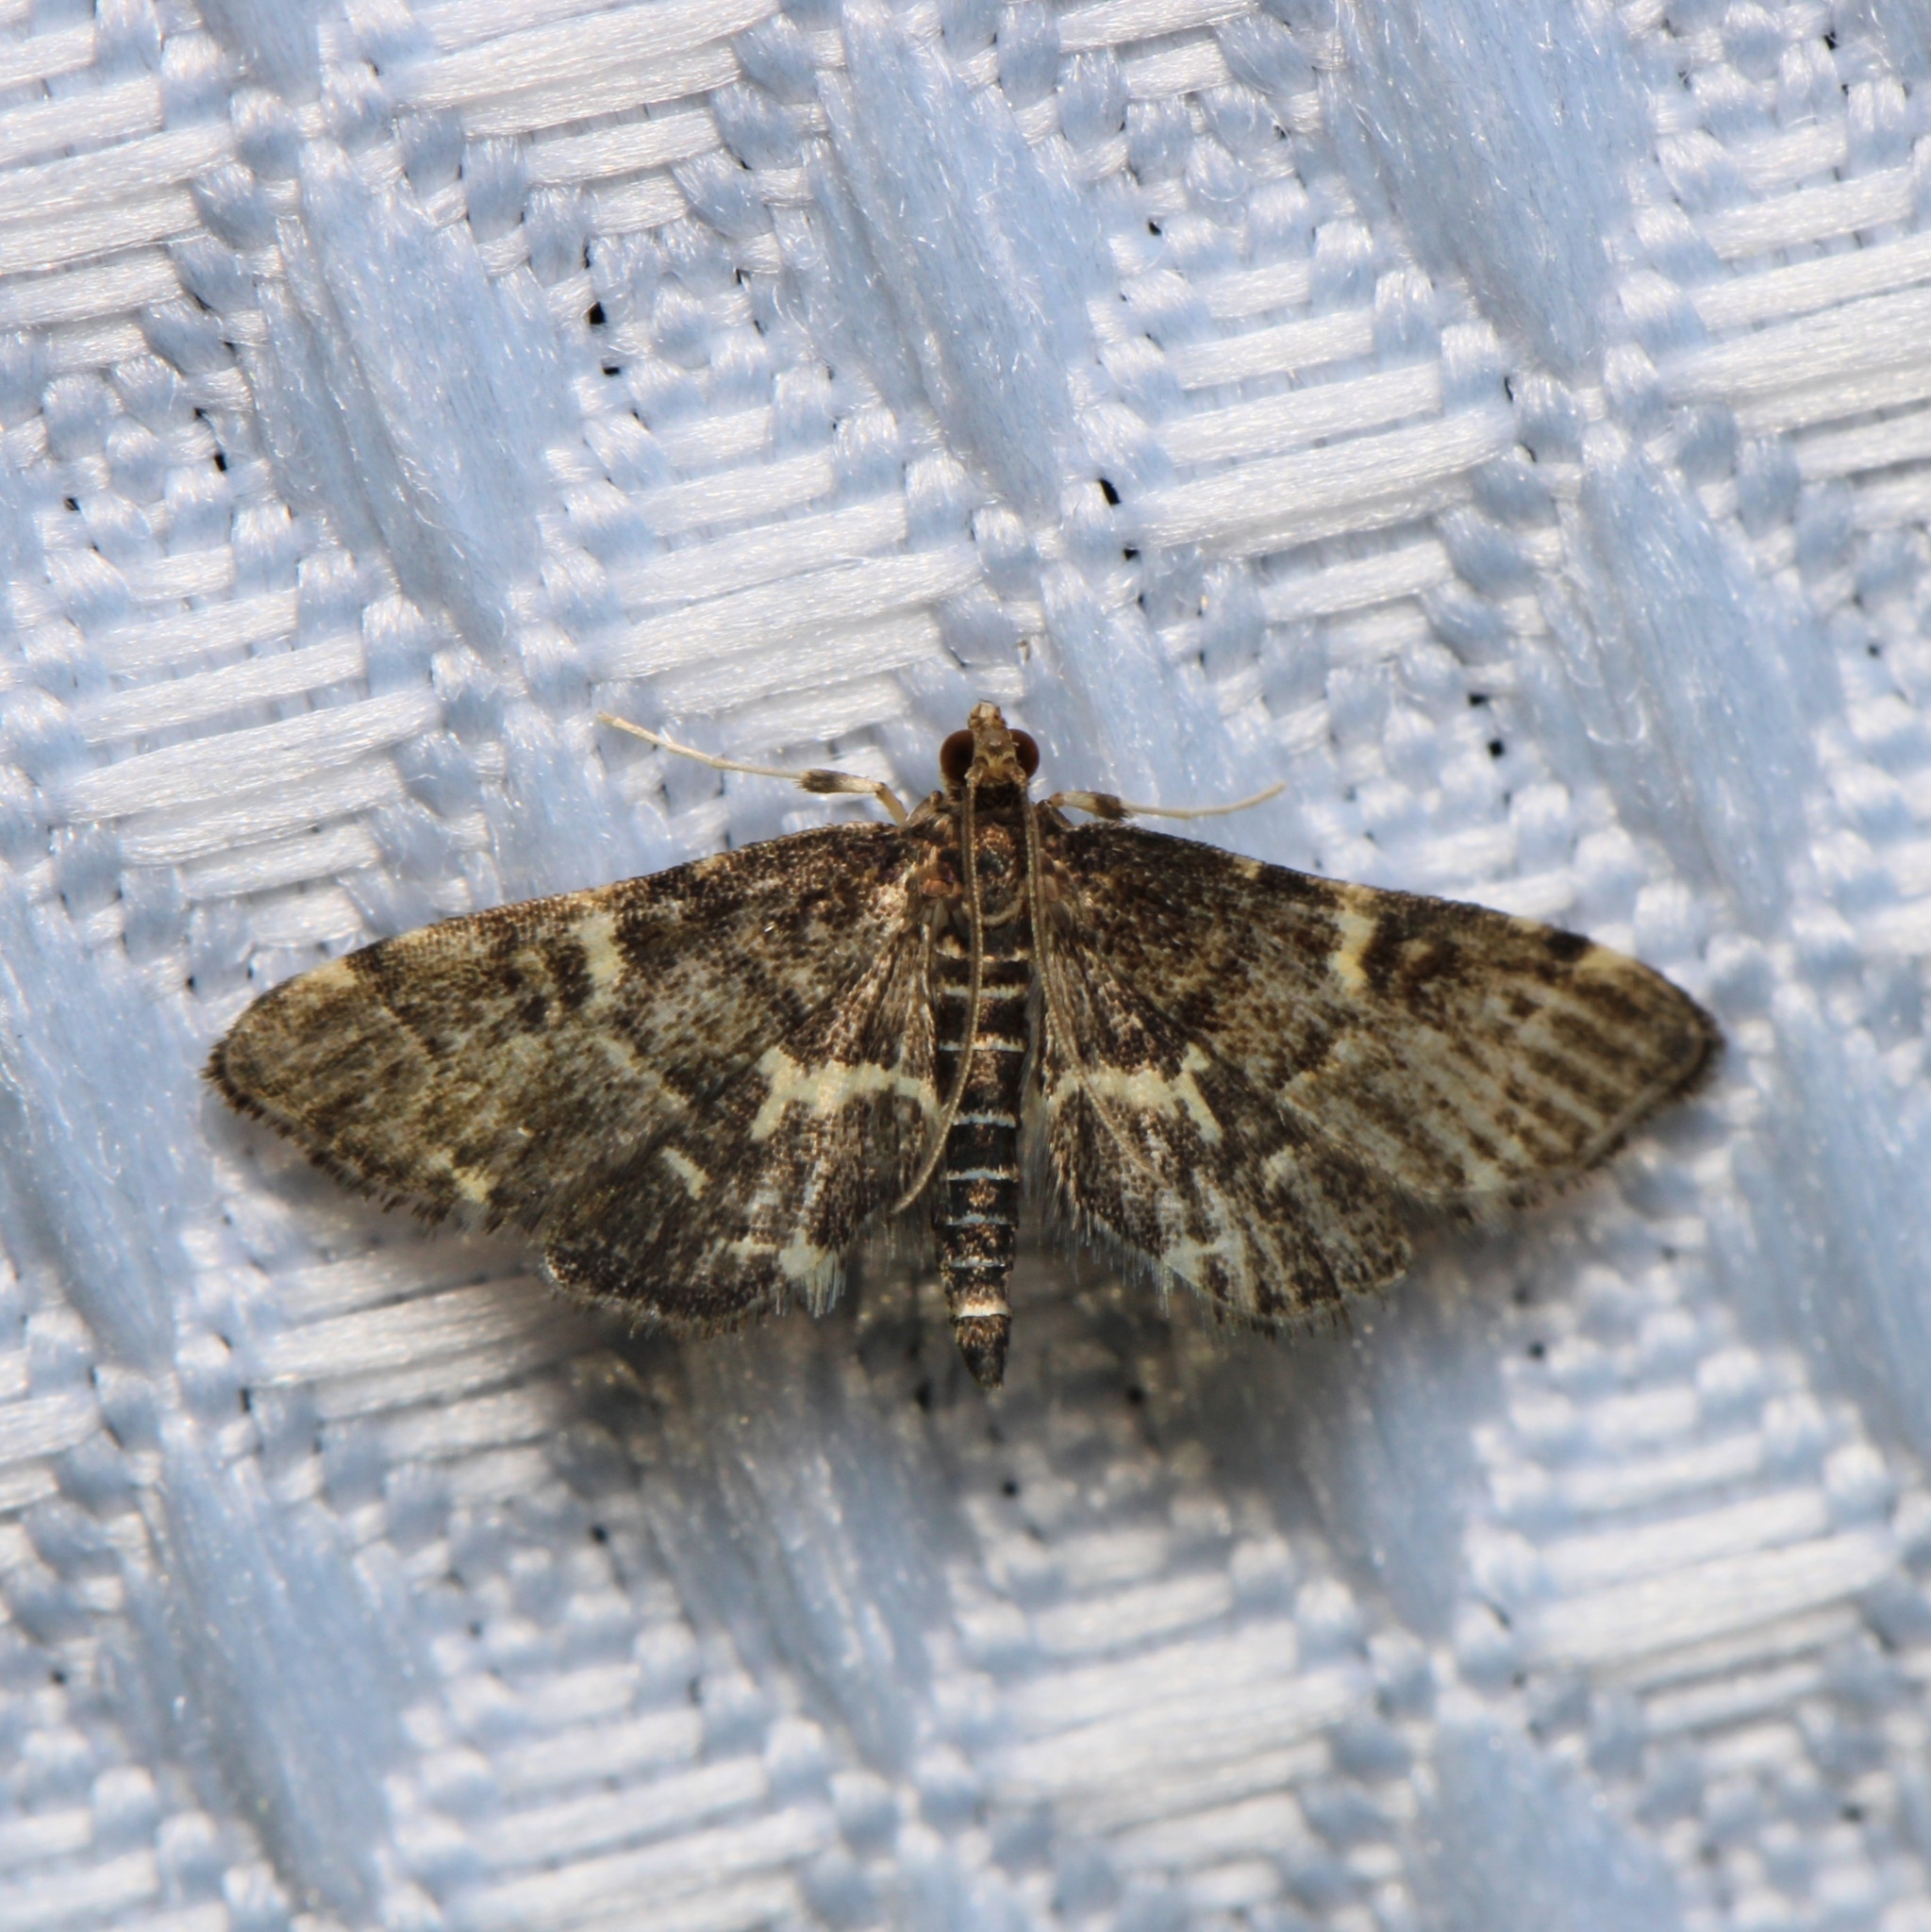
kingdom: Animalia
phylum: Arthropoda
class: Insecta
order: Lepidoptera
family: Crambidae
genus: Anageshna
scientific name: Anageshna primordialis
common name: Yellow-spotted webworm moth
